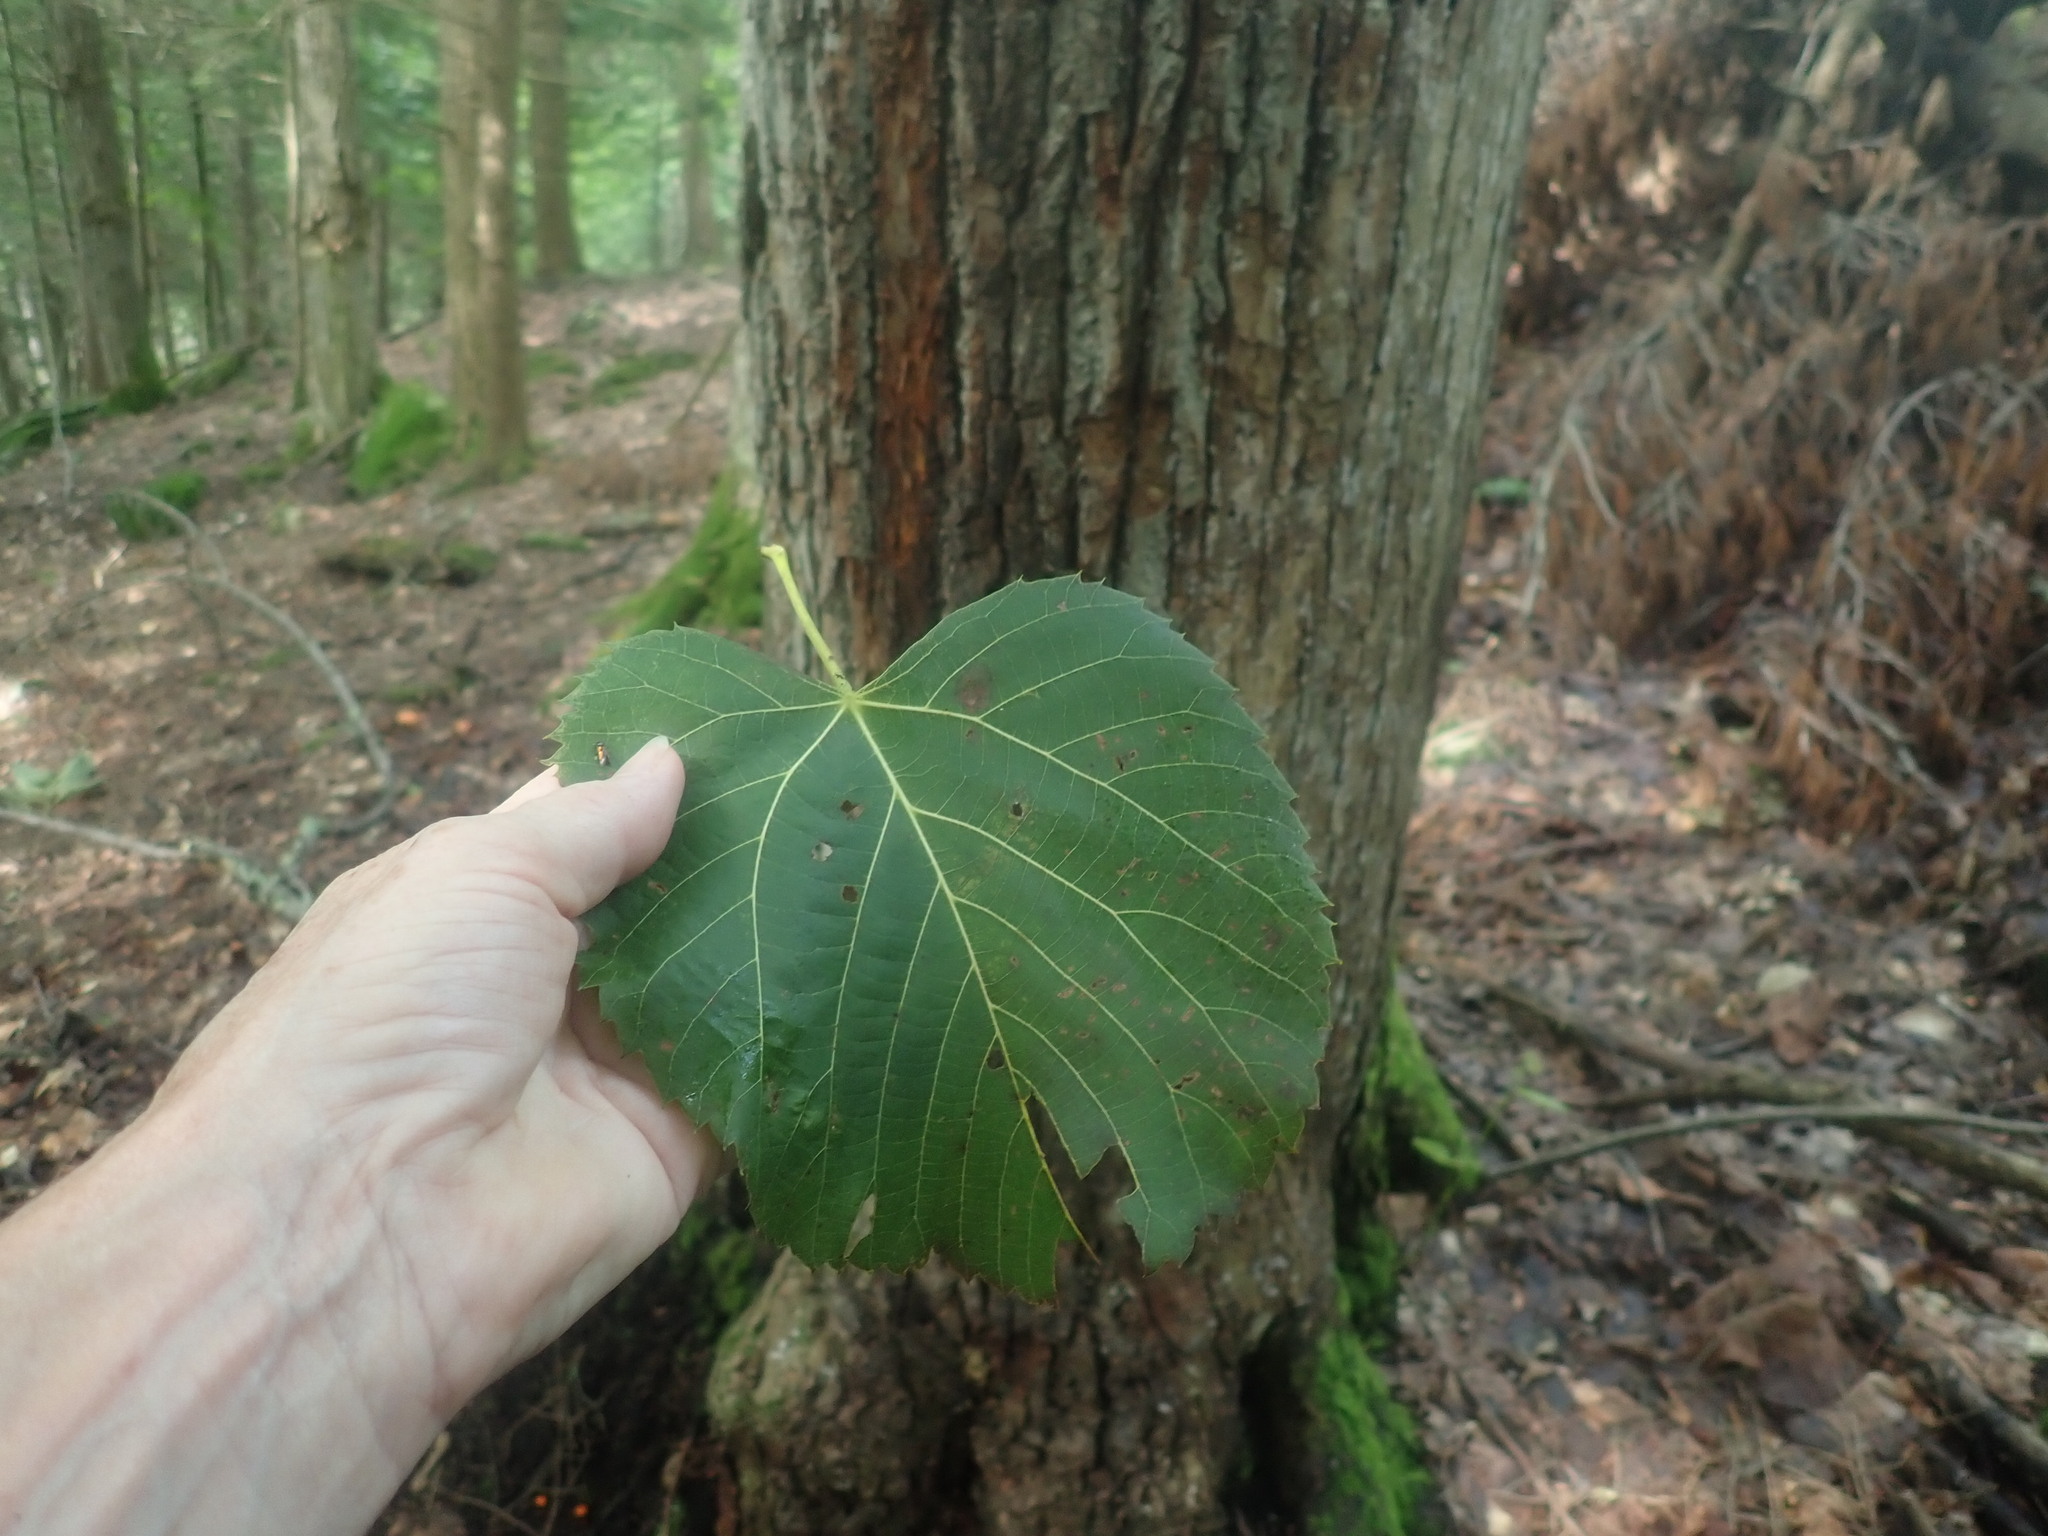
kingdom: Plantae
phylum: Tracheophyta
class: Magnoliopsida
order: Malvales
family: Malvaceae
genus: Tilia
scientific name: Tilia americana
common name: Basswood
